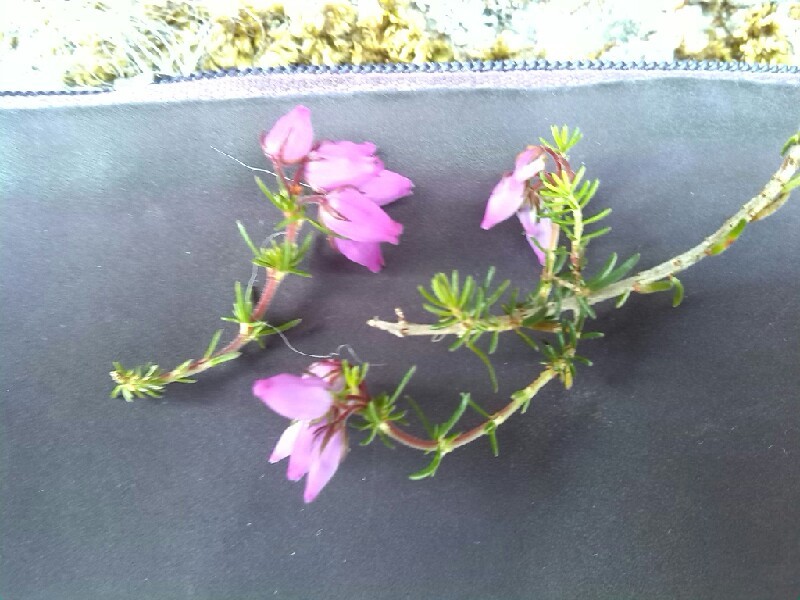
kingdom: Plantae
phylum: Tracheophyta
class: Magnoliopsida
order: Ericales
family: Ericaceae
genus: Erica
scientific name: Erica cinerea
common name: Bell heather
